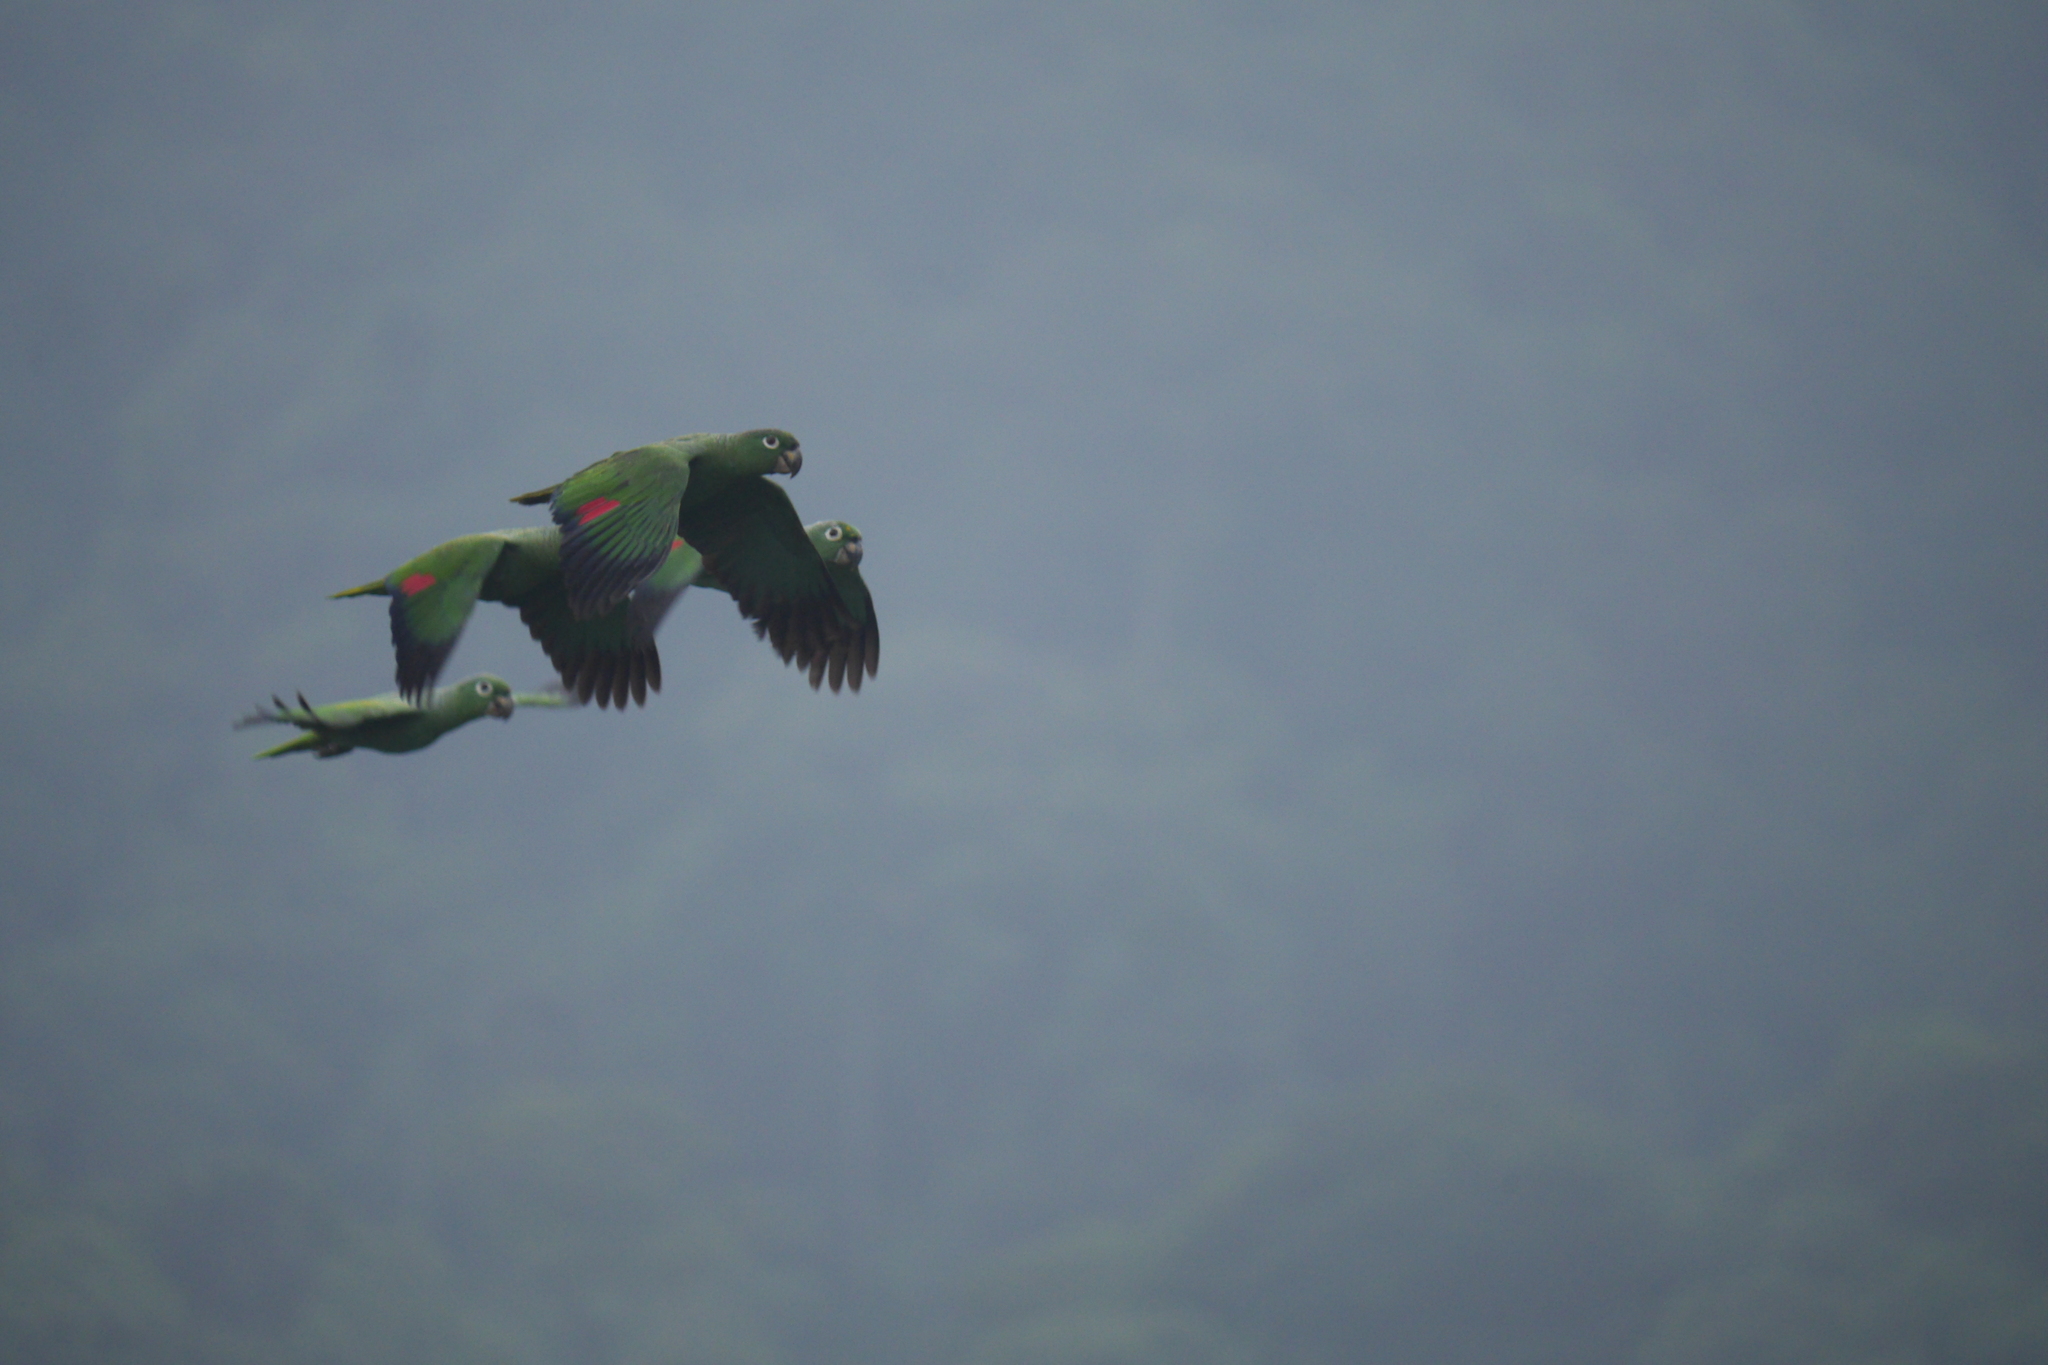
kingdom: Animalia
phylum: Chordata
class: Aves
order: Psittaciformes
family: Psittacidae
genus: Amazona
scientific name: Amazona farinosa
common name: Mealy parrot
